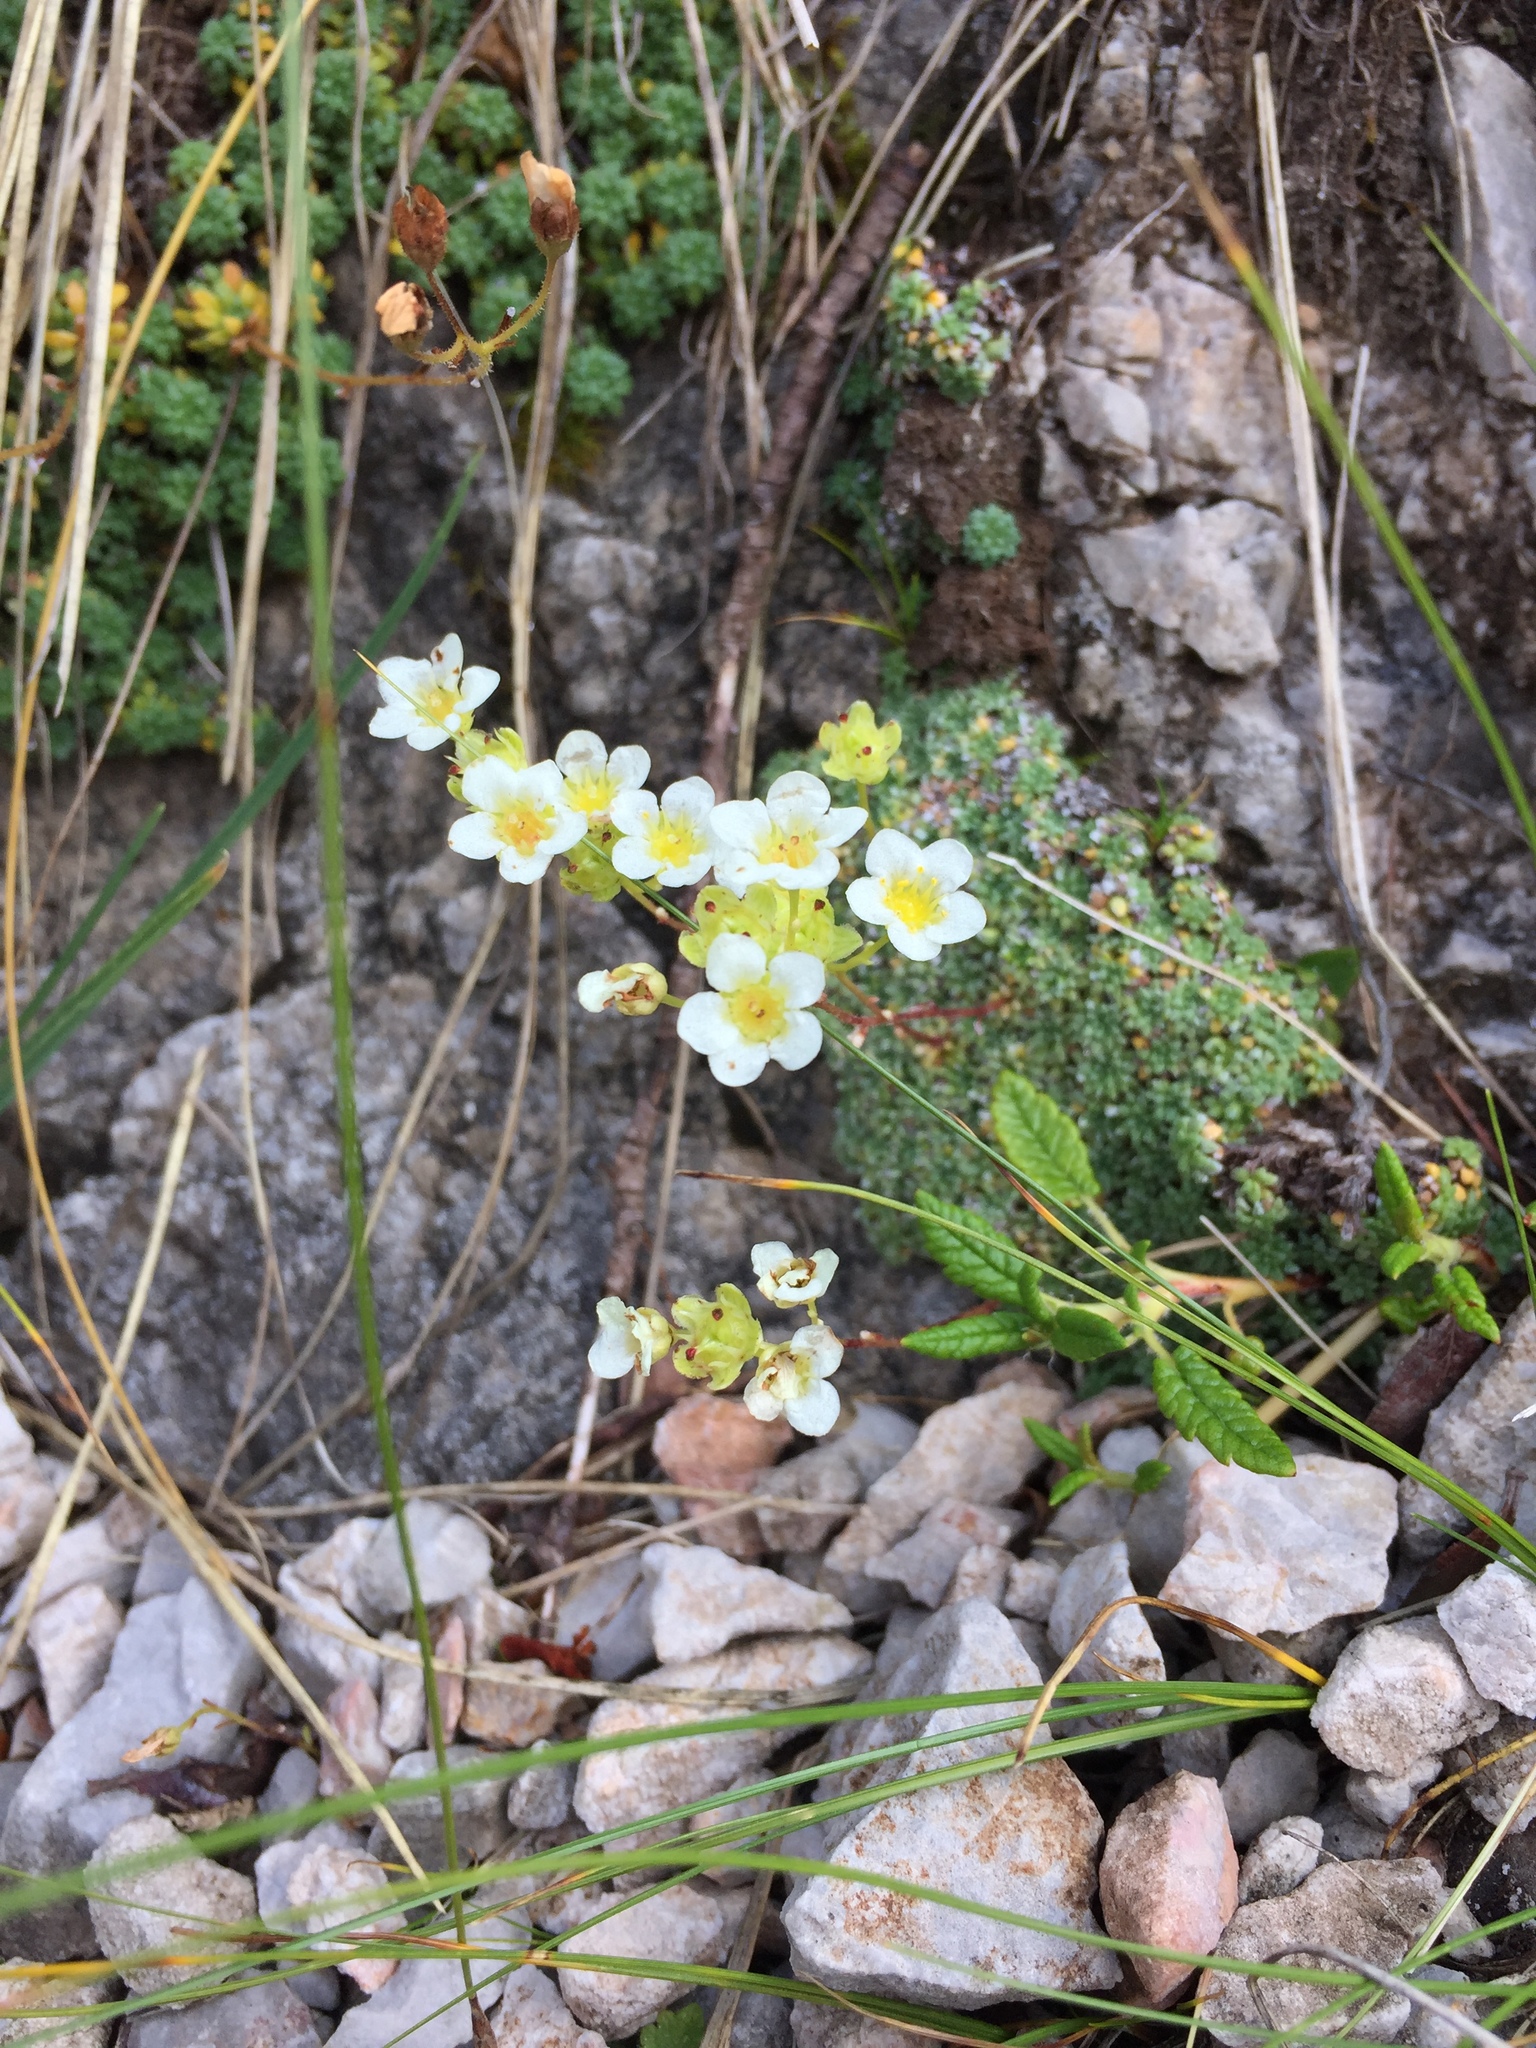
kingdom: Plantae
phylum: Tracheophyta
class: Magnoliopsida
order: Saxifragales
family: Saxifragaceae
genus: Saxifraga
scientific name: Saxifraga caesia
